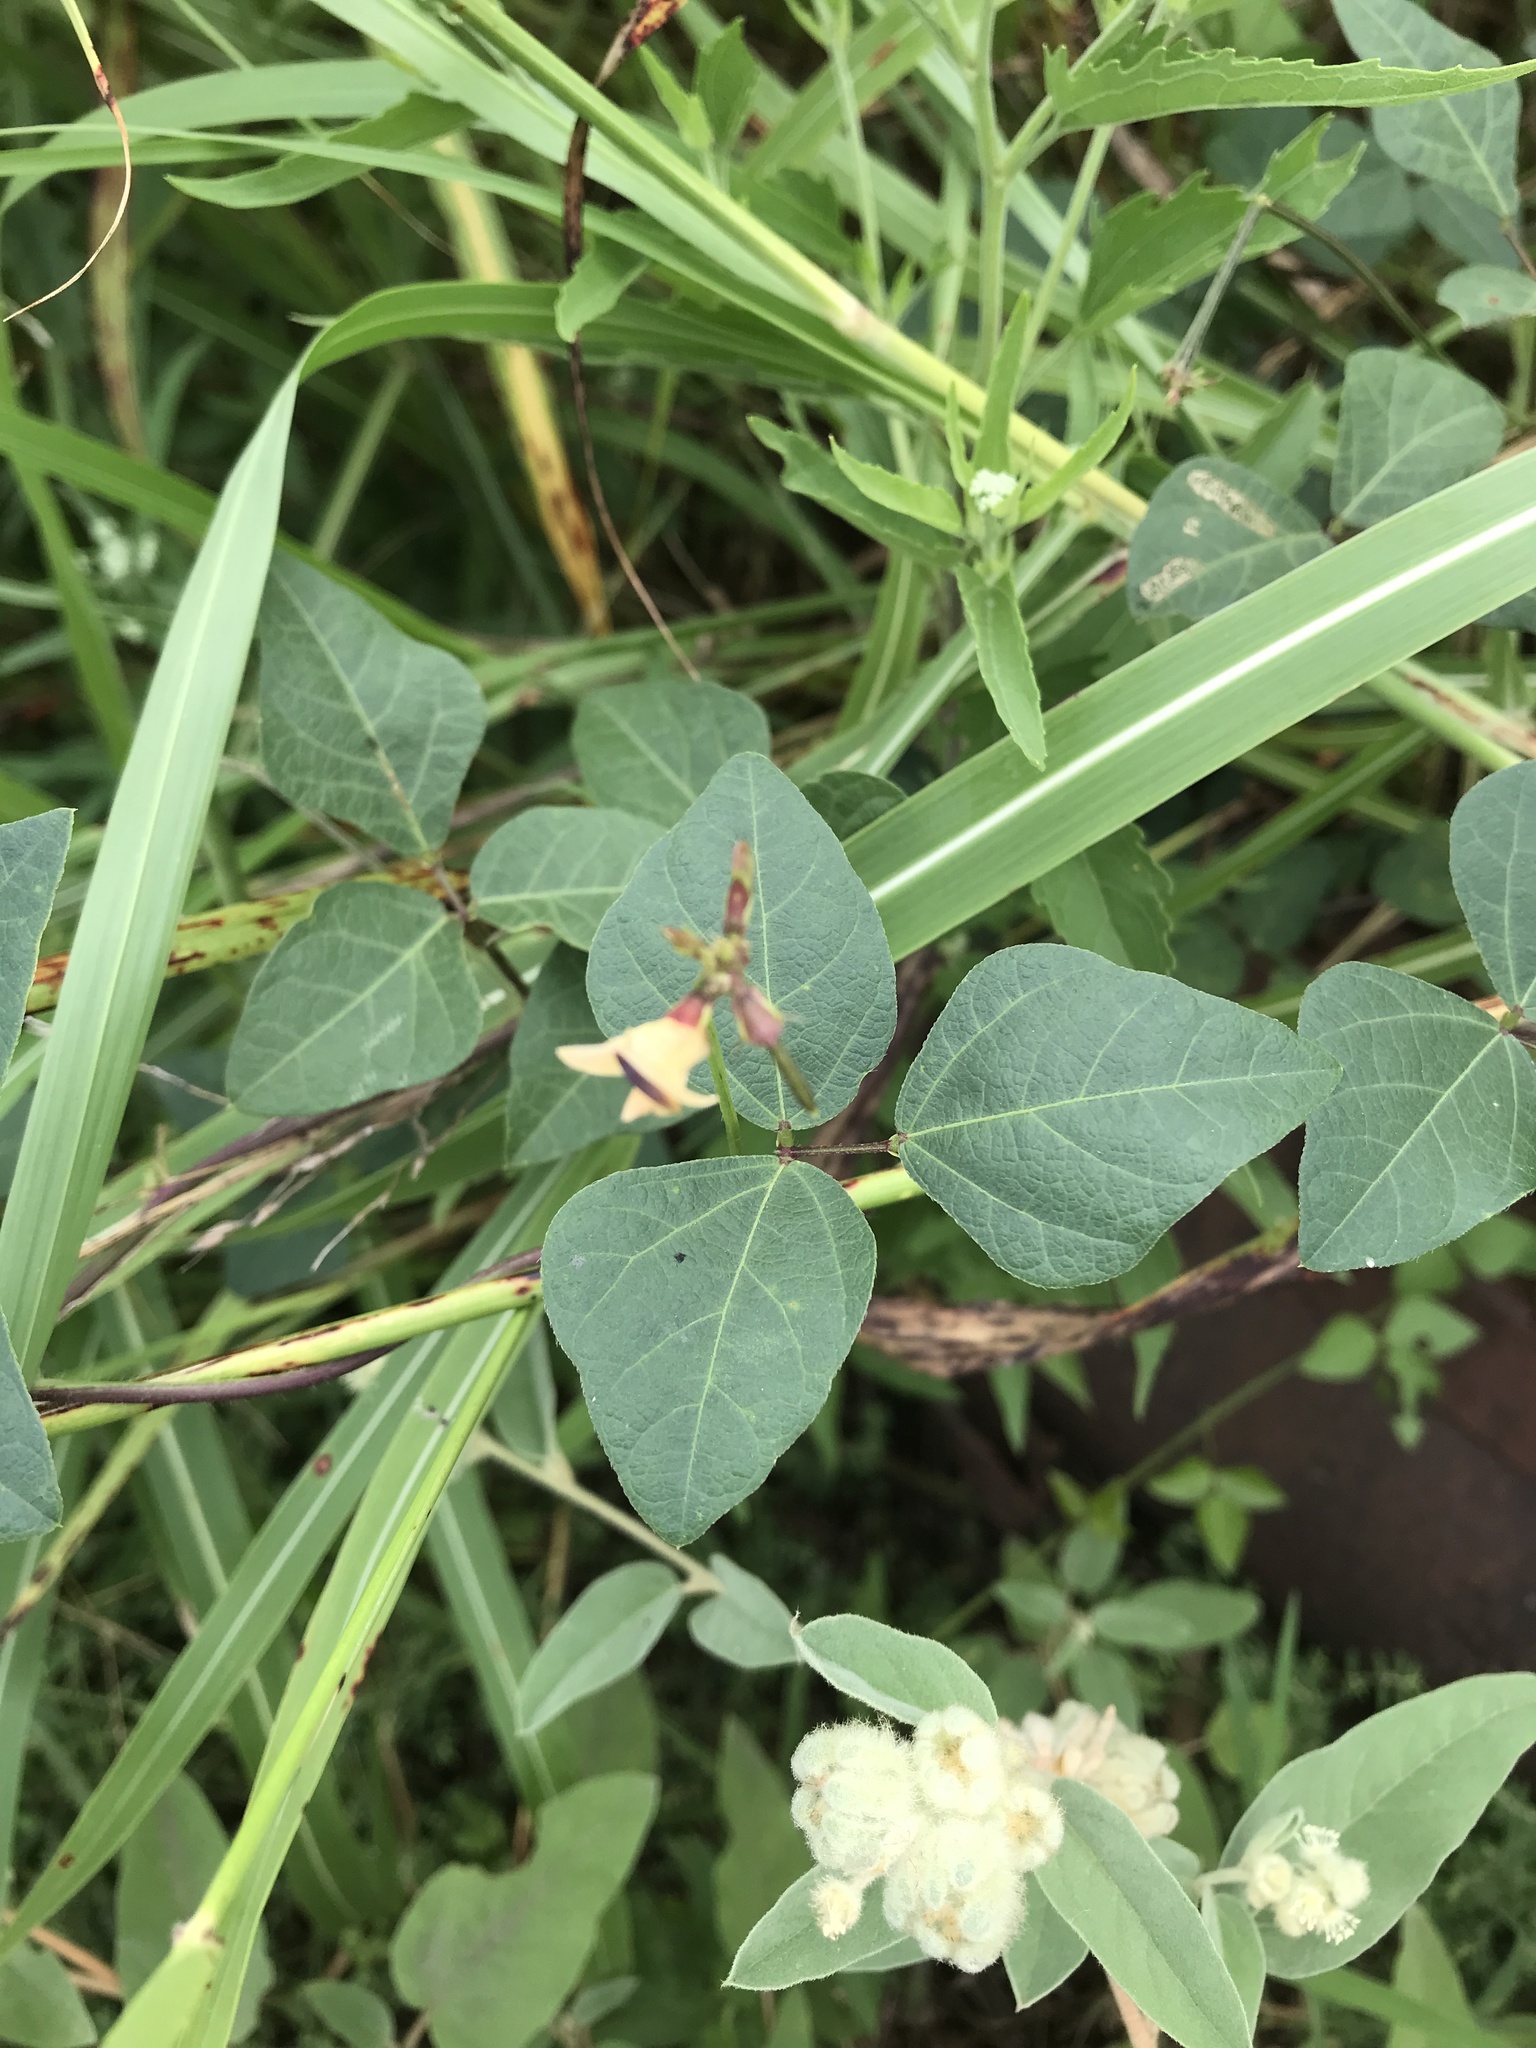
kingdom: Plantae
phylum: Tracheophyta
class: Magnoliopsida
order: Fabales
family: Fabaceae
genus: Strophostyles
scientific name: Strophostyles helvola
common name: Trailing wild bean
